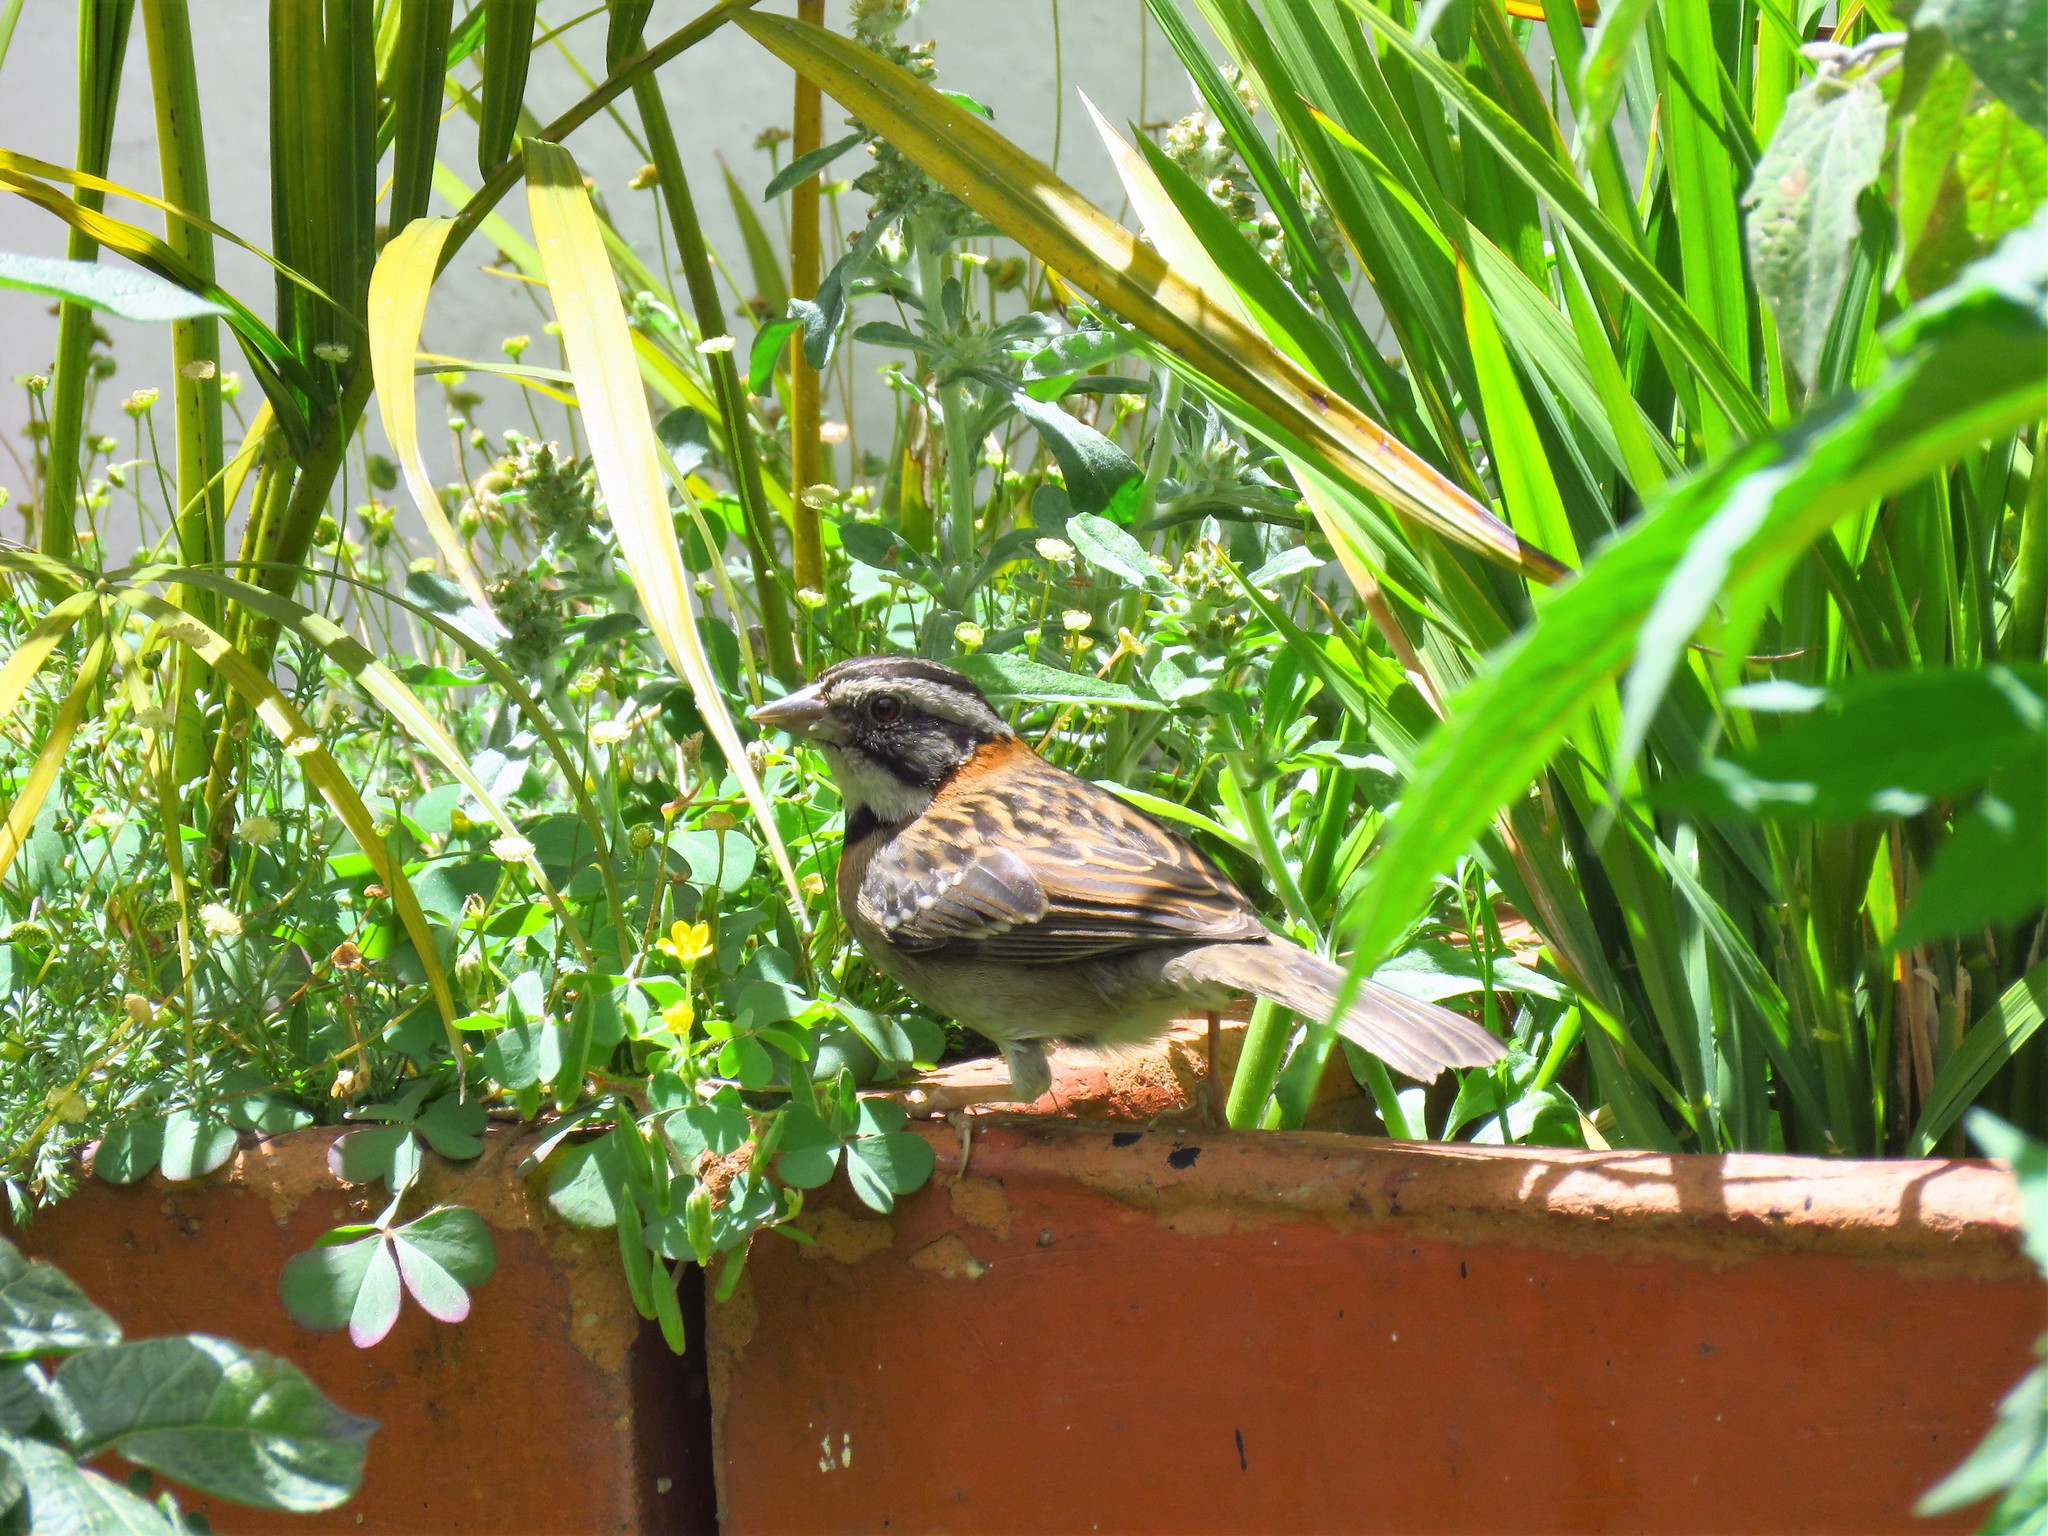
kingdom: Animalia
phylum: Chordata
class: Aves
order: Passeriformes
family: Passerellidae
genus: Zonotrichia
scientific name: Zonotrichia capensis
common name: Rufous-collared sparrow
